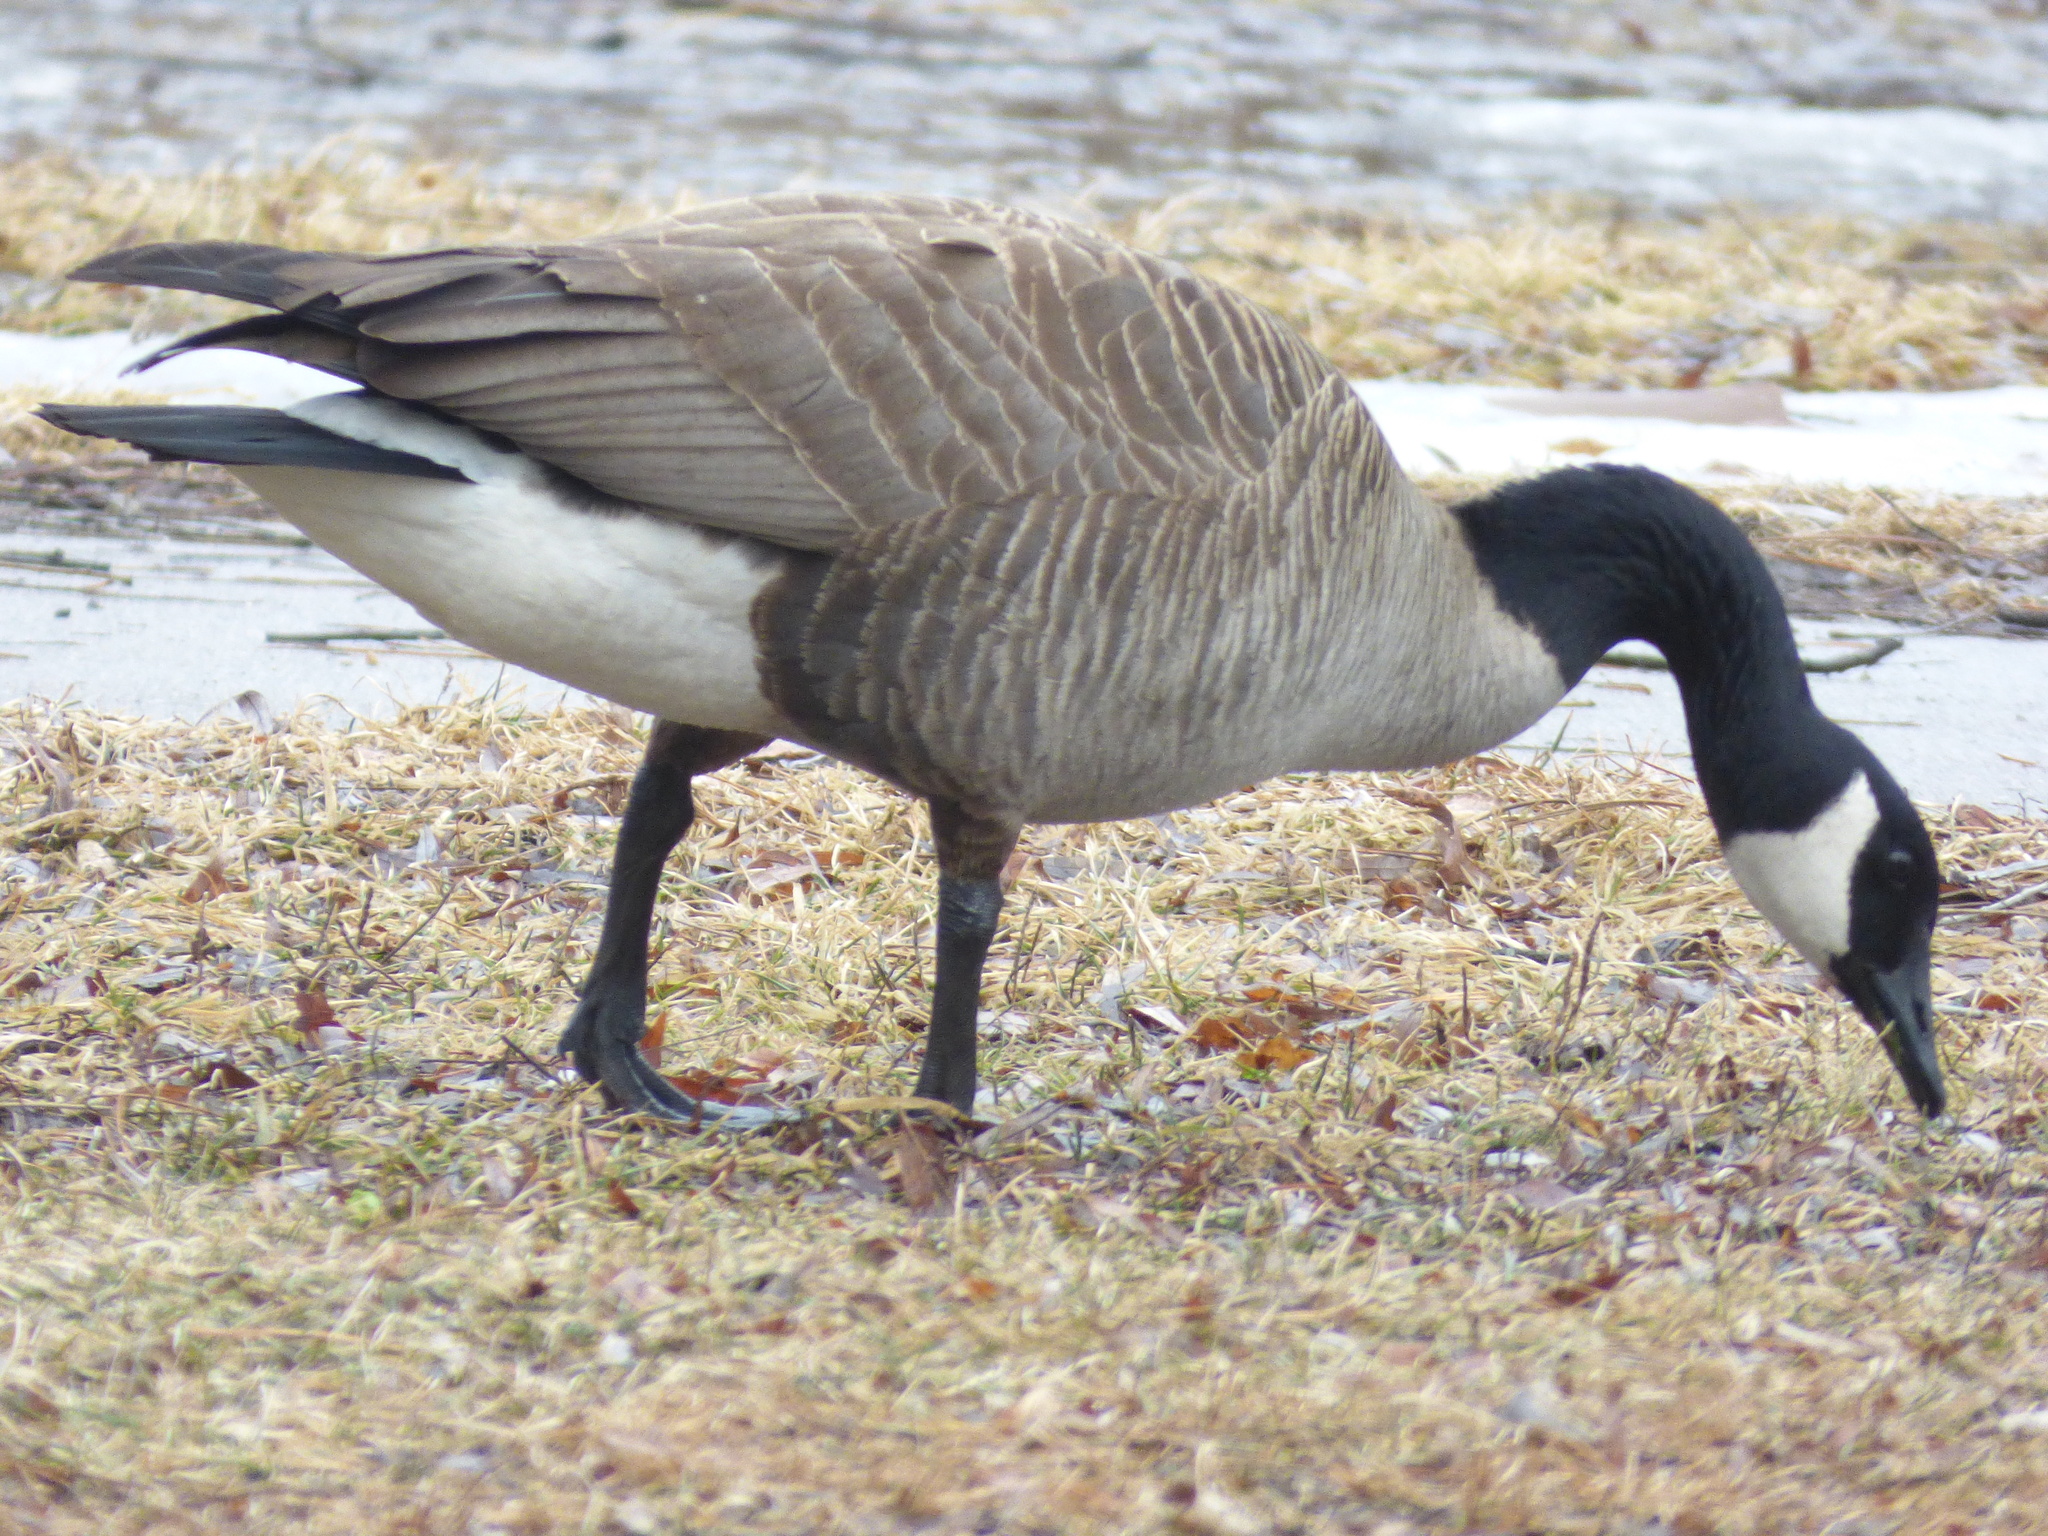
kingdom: Animalia
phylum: Chordata
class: Aves
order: Anseriformes
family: Anatidae
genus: Branta
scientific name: Branta canadensis
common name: Canada goose
